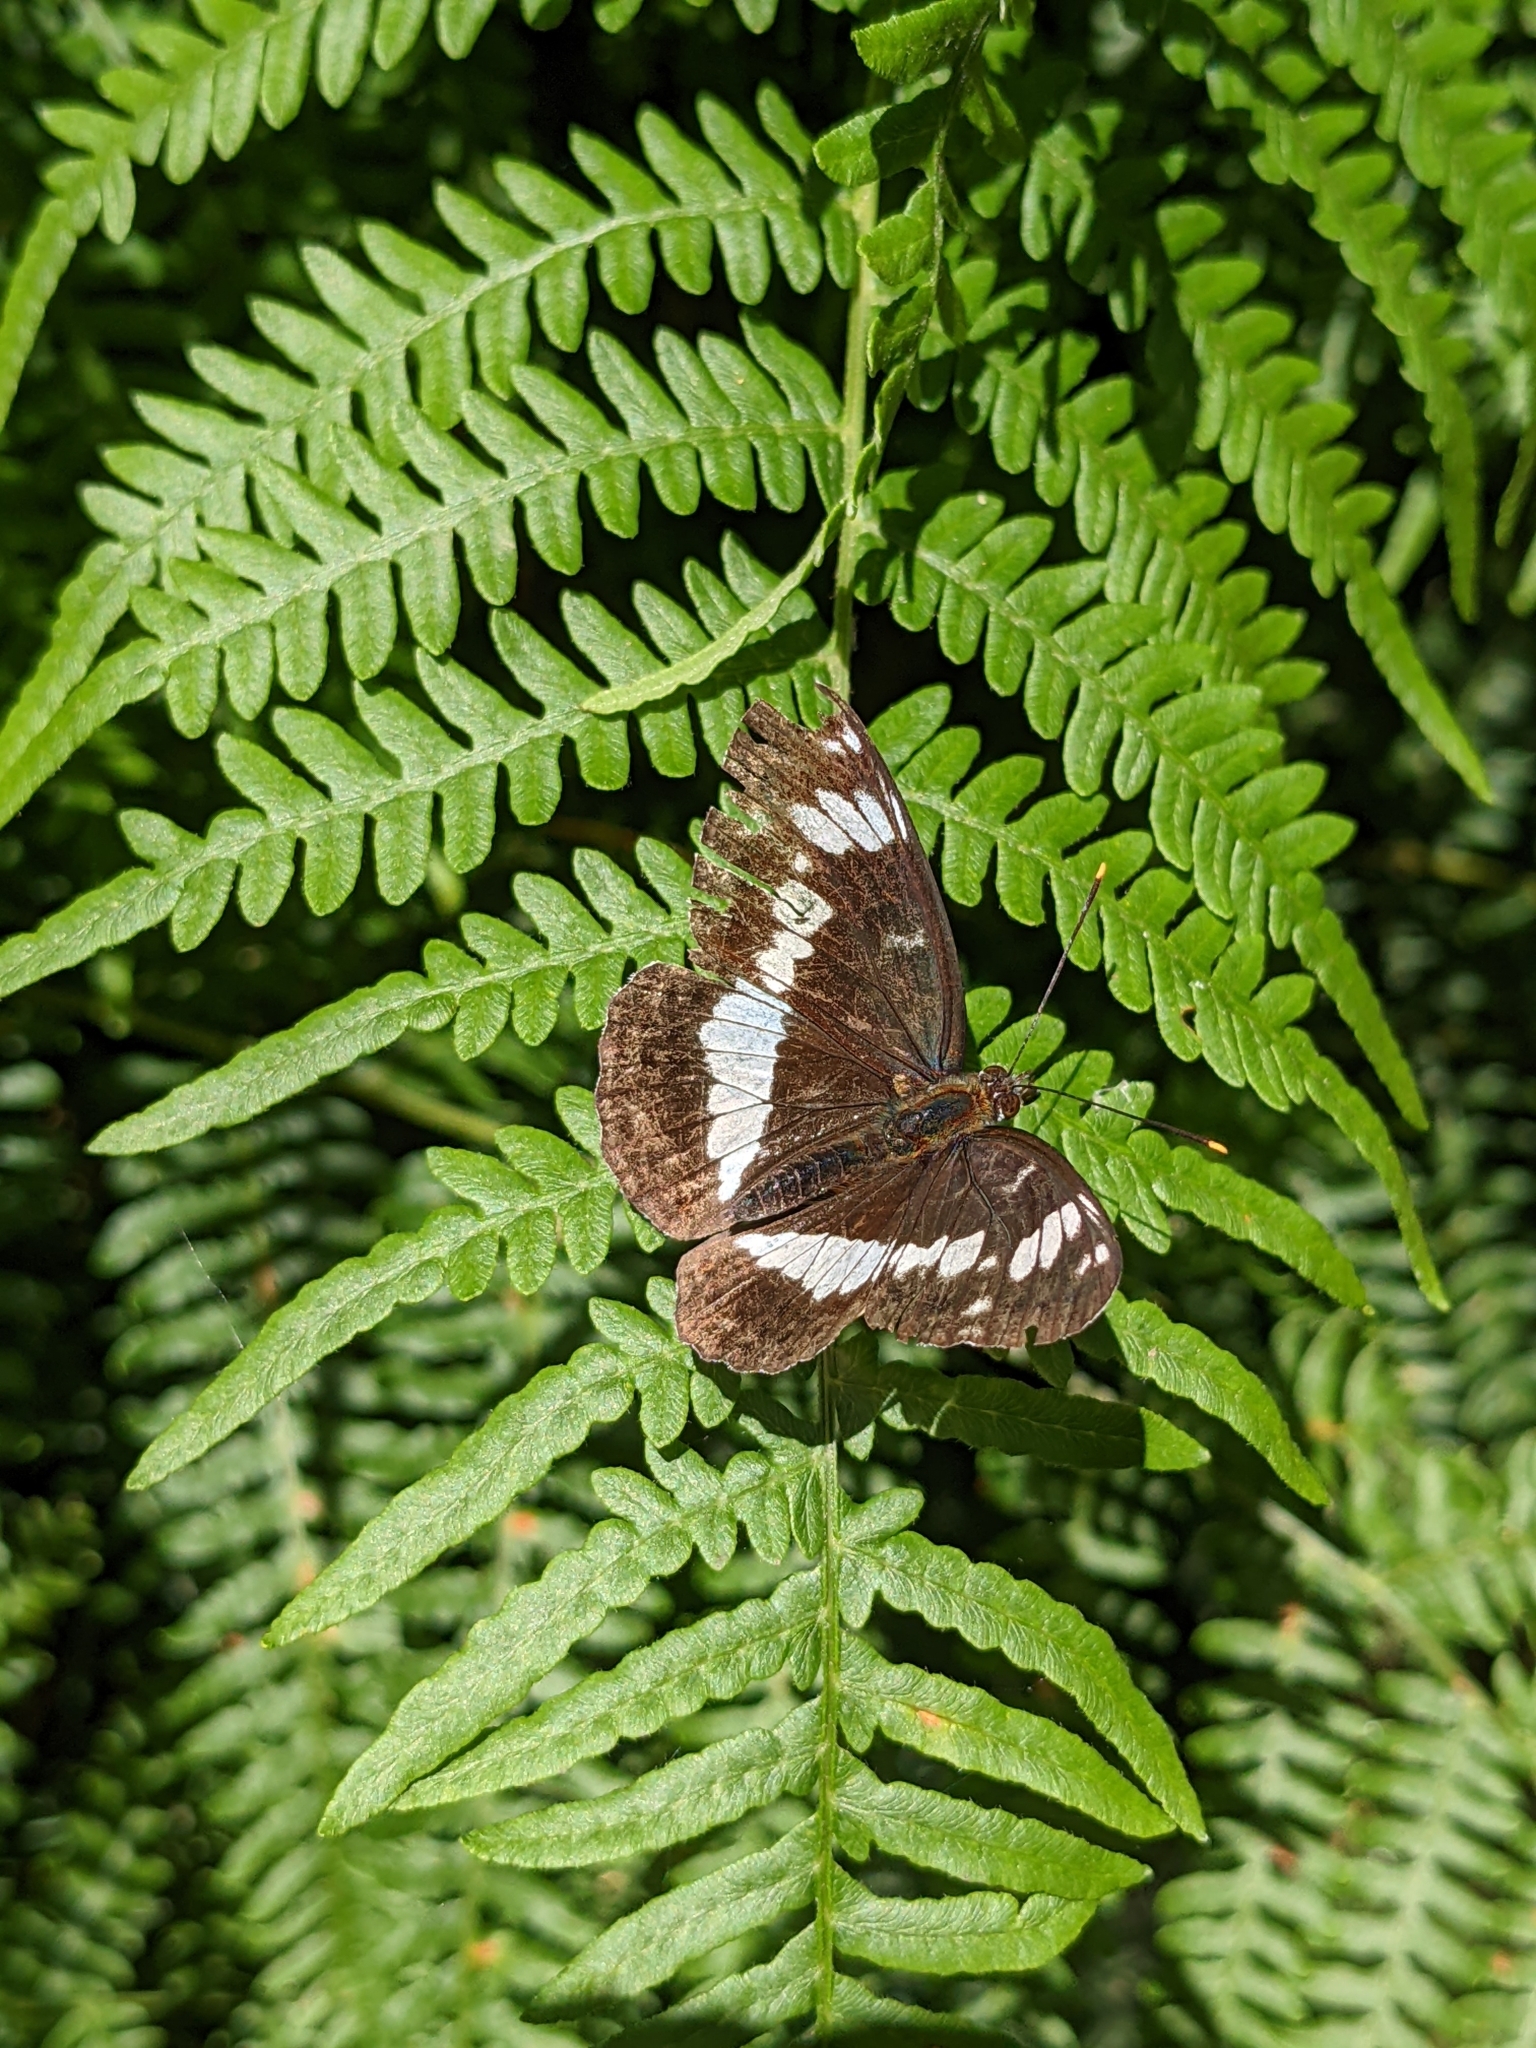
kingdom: Animalia
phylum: Arthropoda
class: Insecta
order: Lepidoptera
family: Nymphalidae
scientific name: Nymphalidae
